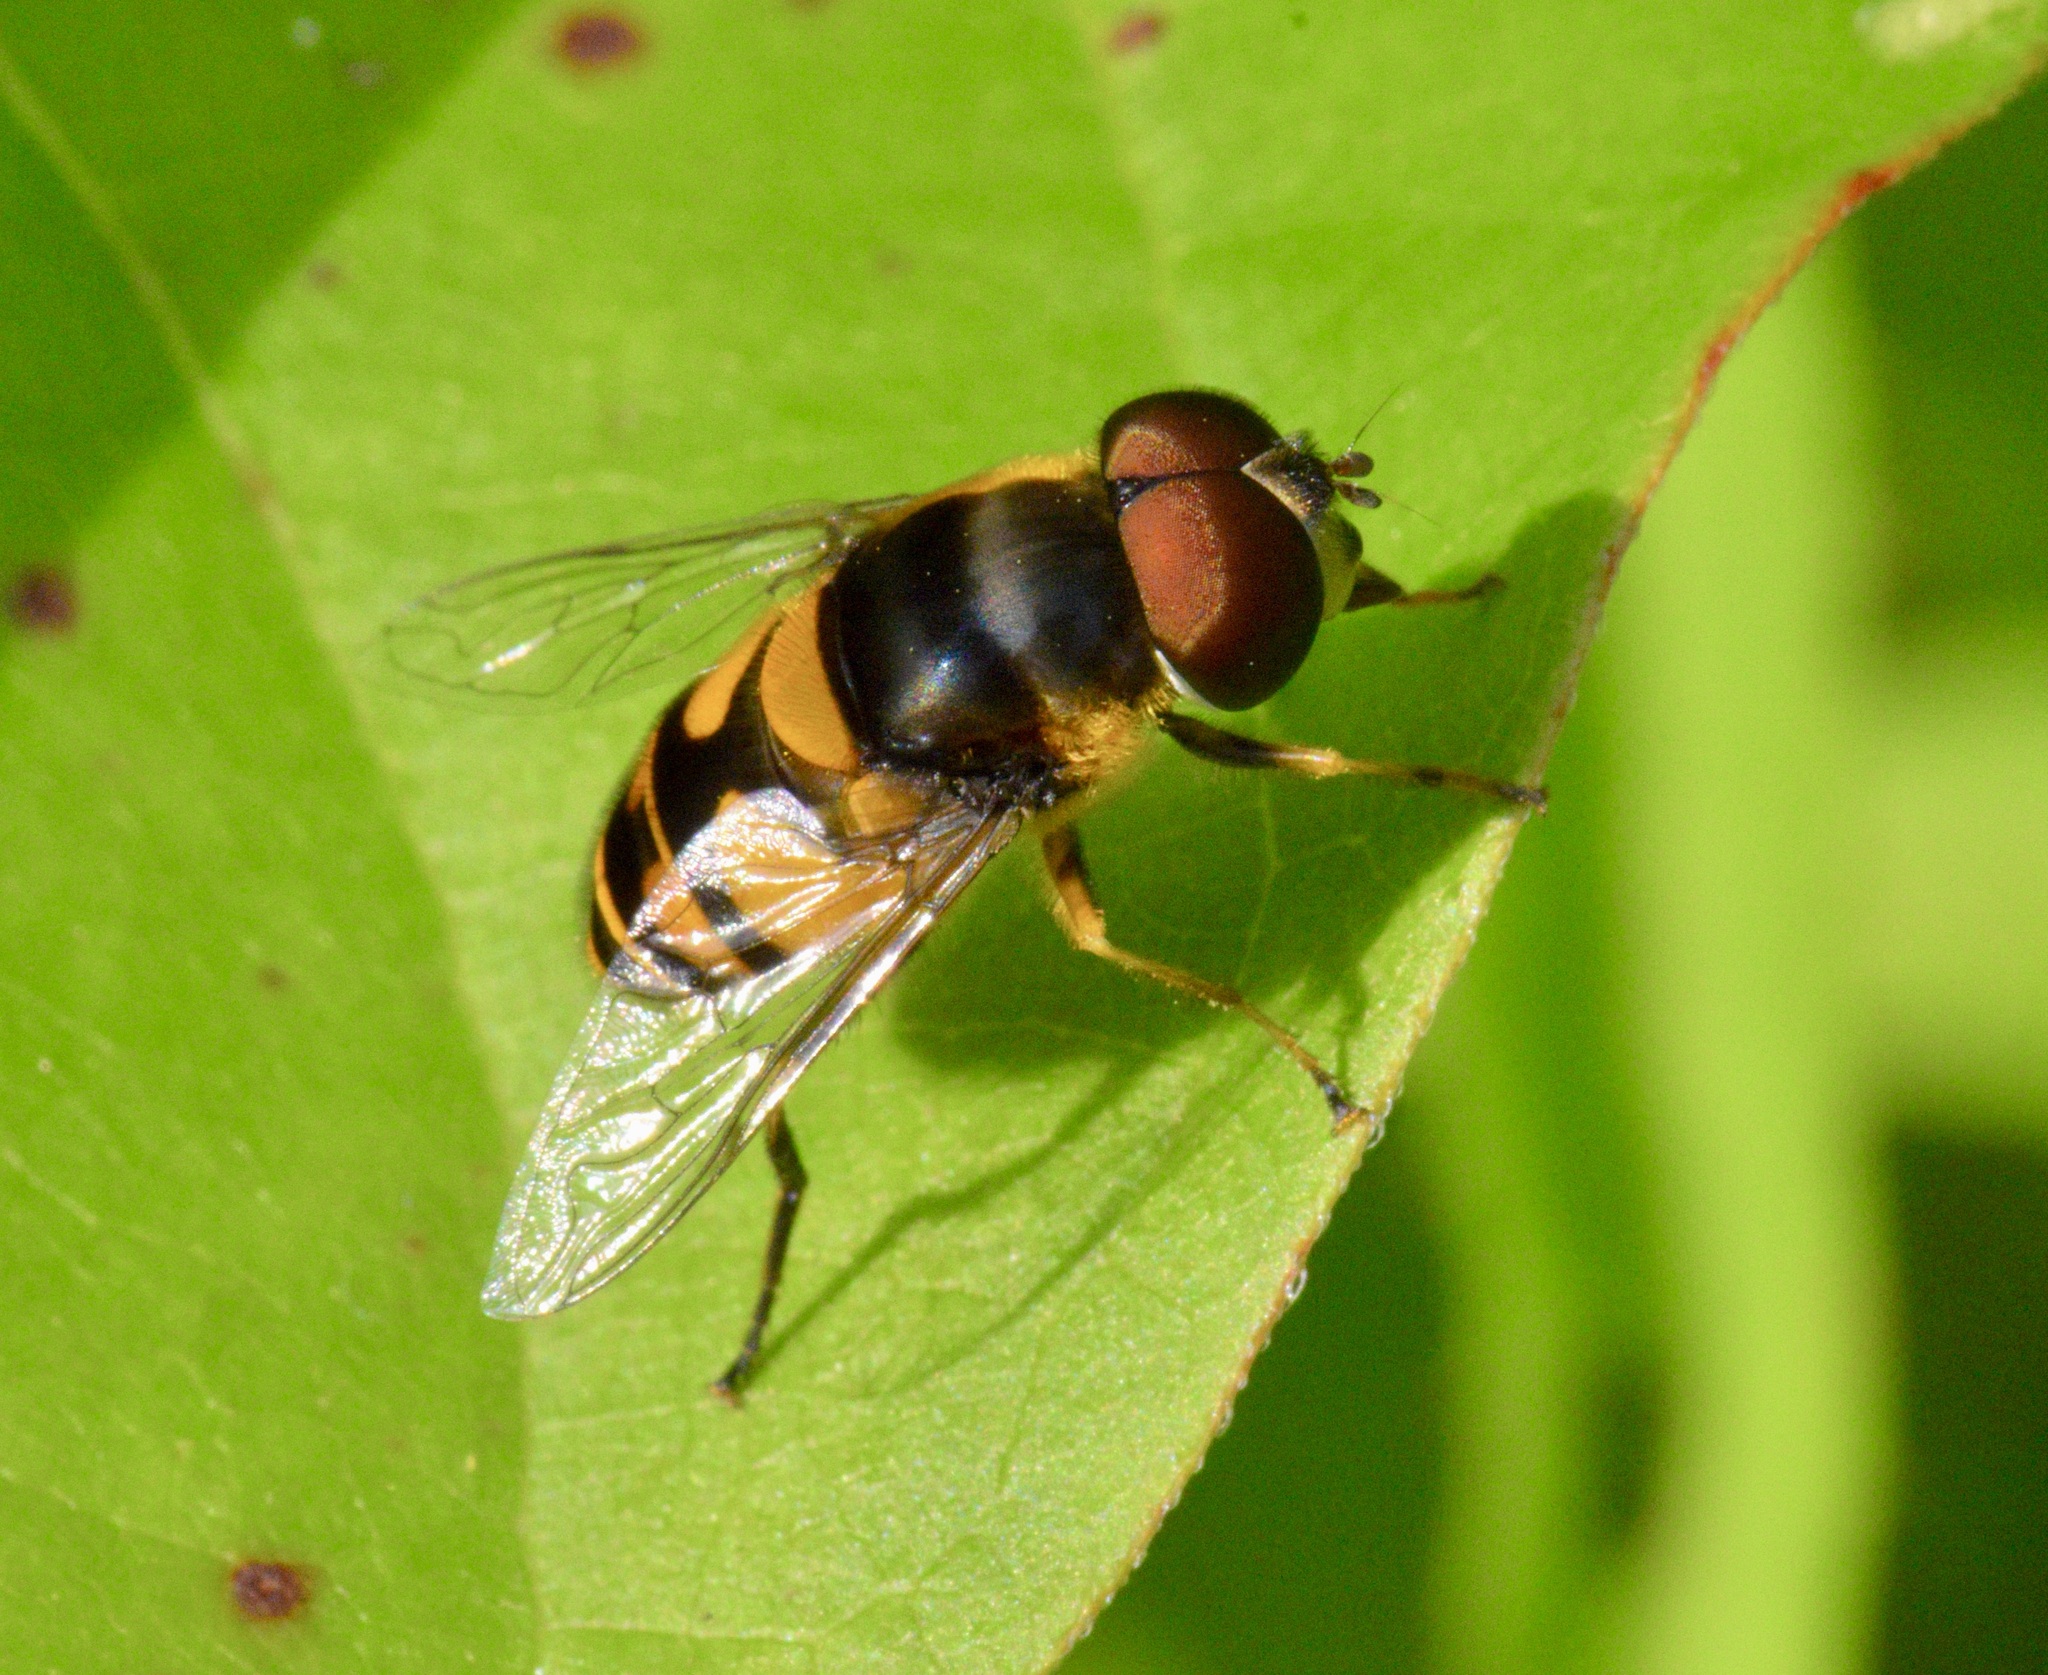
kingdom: Animalia
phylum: Arthropoda
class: Insecta
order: Diptera
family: Syrphidae
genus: Eristalis
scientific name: Eristalis transversa
